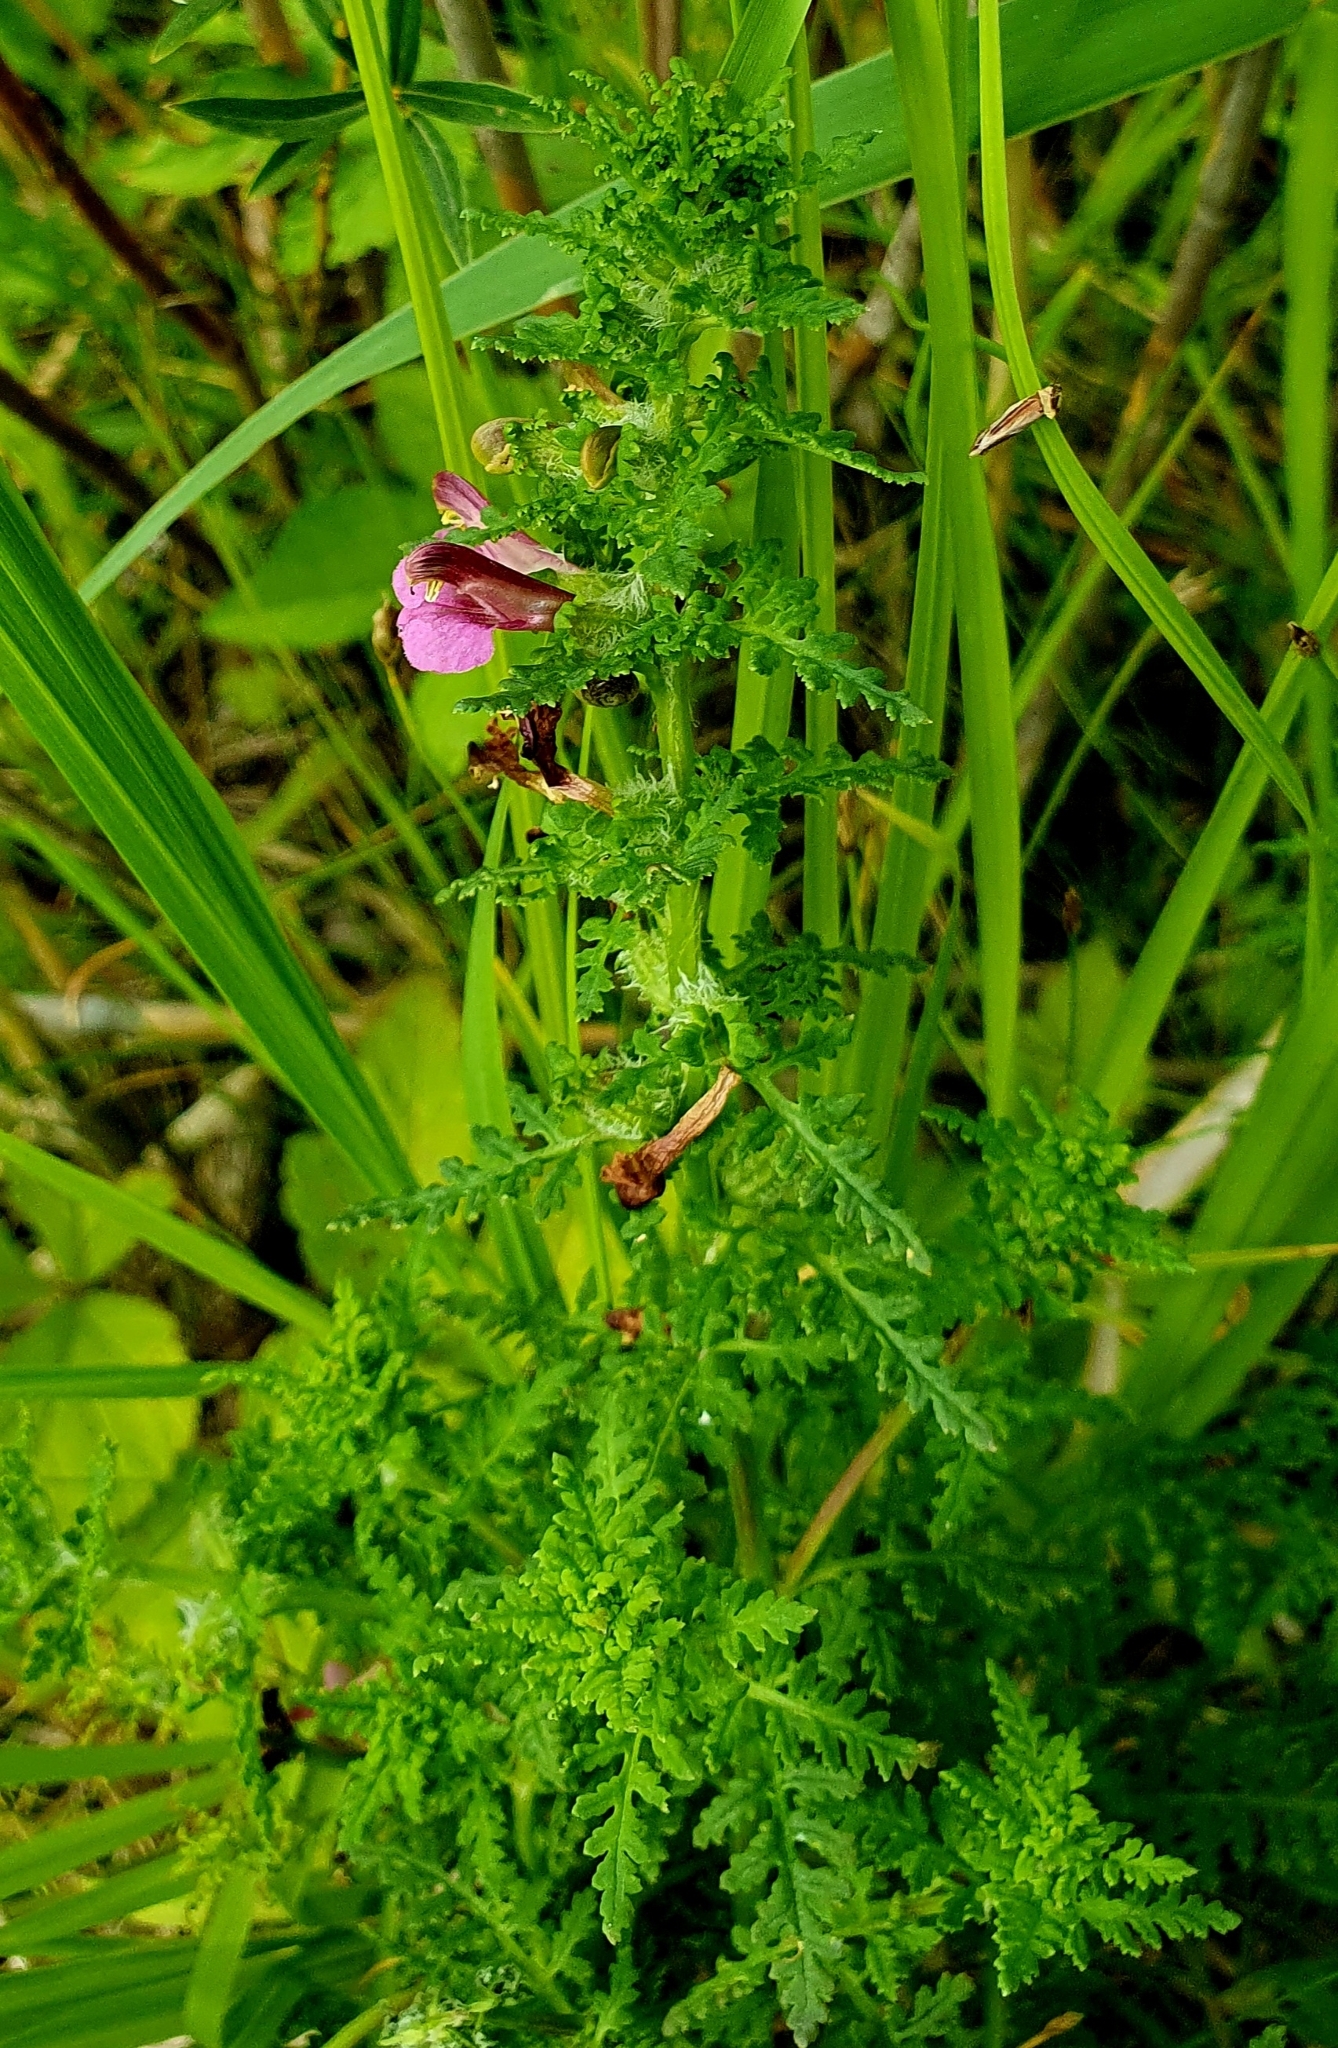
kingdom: Plantae
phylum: Tracheophyta
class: Magnoliopsida
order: Lamiales
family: Orobanchaceae
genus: Pedicularis
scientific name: Pedicularis palustris
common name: Marsh lousewort
